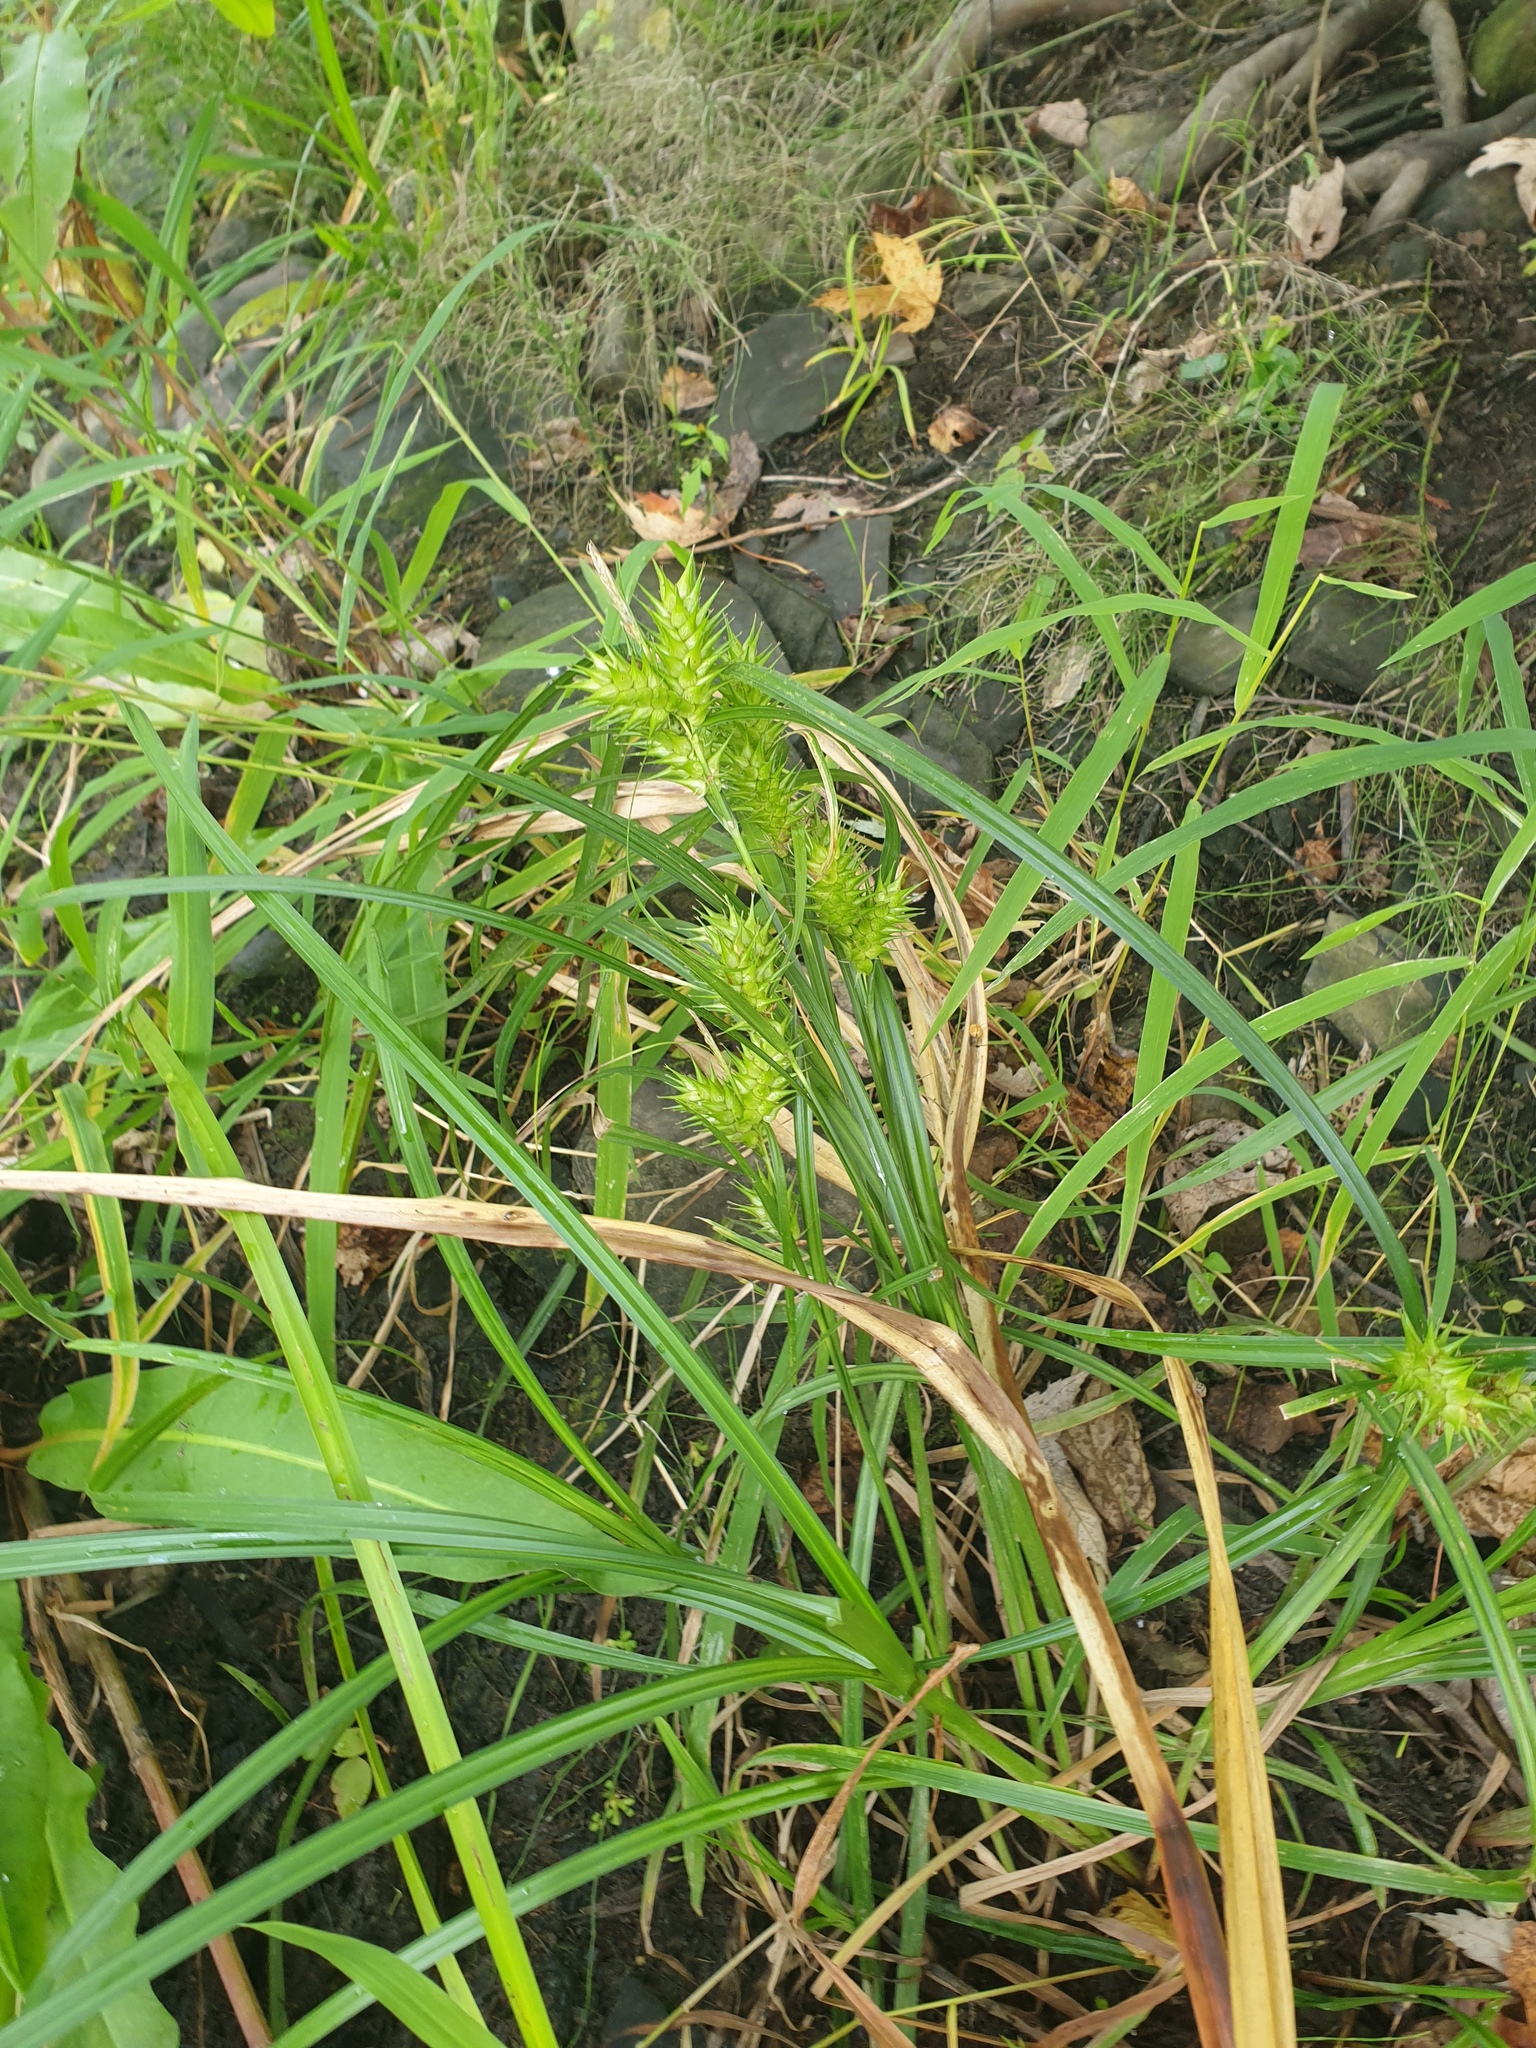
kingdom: Plantae
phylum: Tracheophyta
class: Liliopsida
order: Poales
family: Cyperaceae
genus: Carex
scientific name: Carex lupulina
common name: Hop sedge
